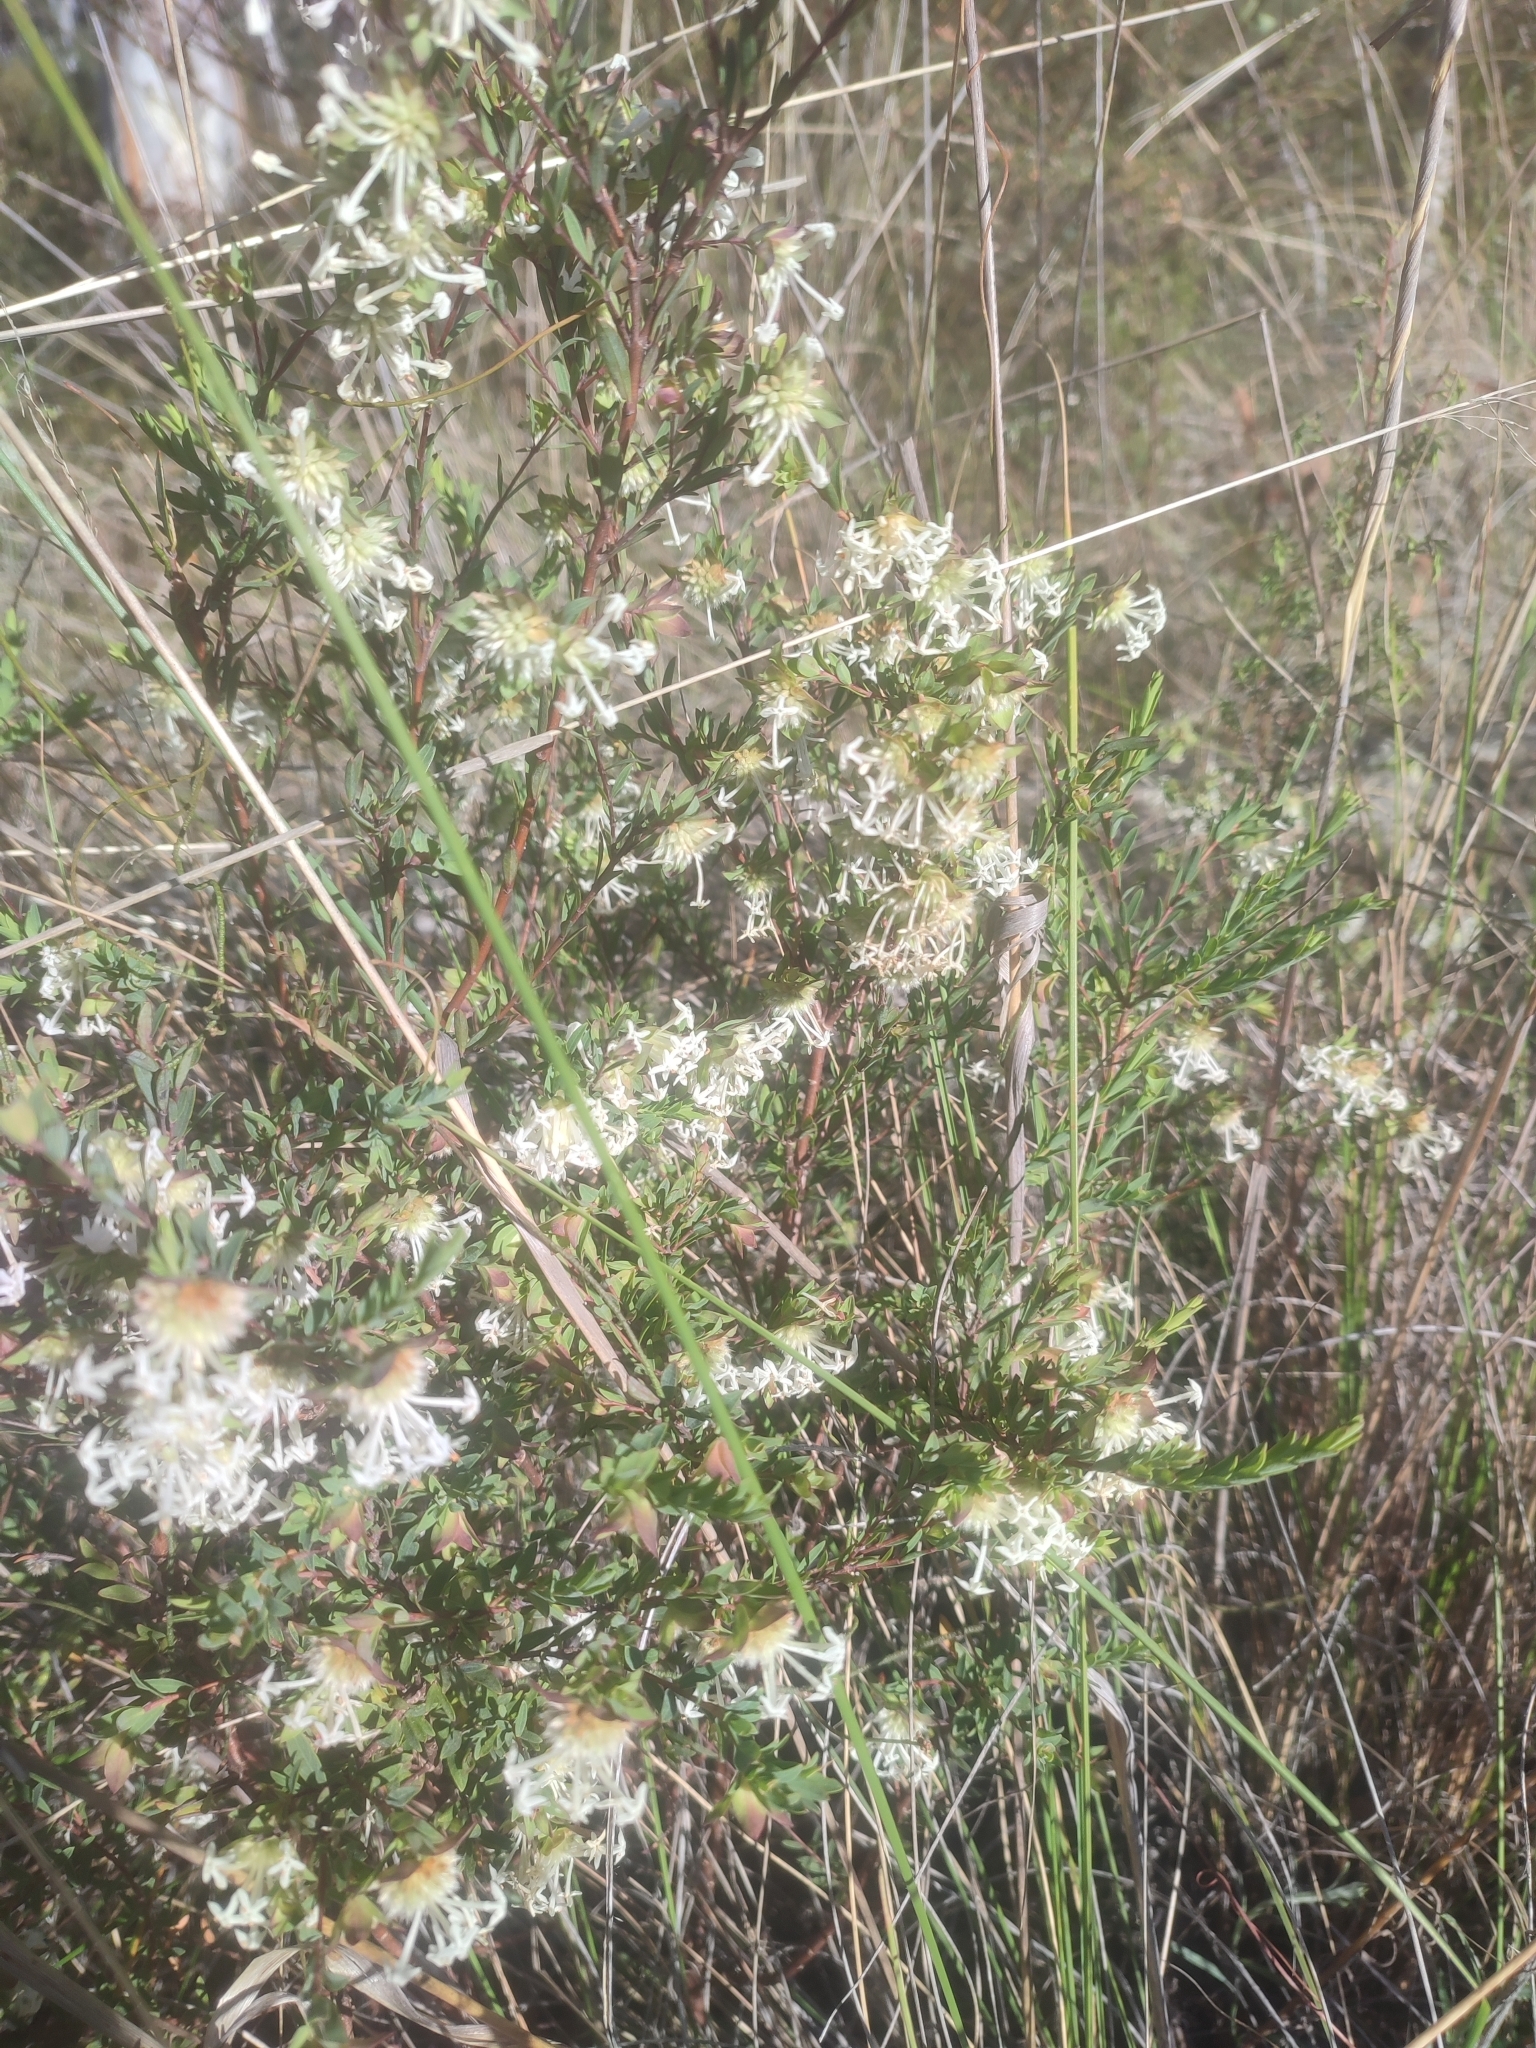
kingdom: Plantae
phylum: Tracheophyta
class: Magnoliopsida
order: Malvales
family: Thymelaeaceae
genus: Pimelea
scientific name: Pimelea linifolia
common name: Queen-of-the-bush
